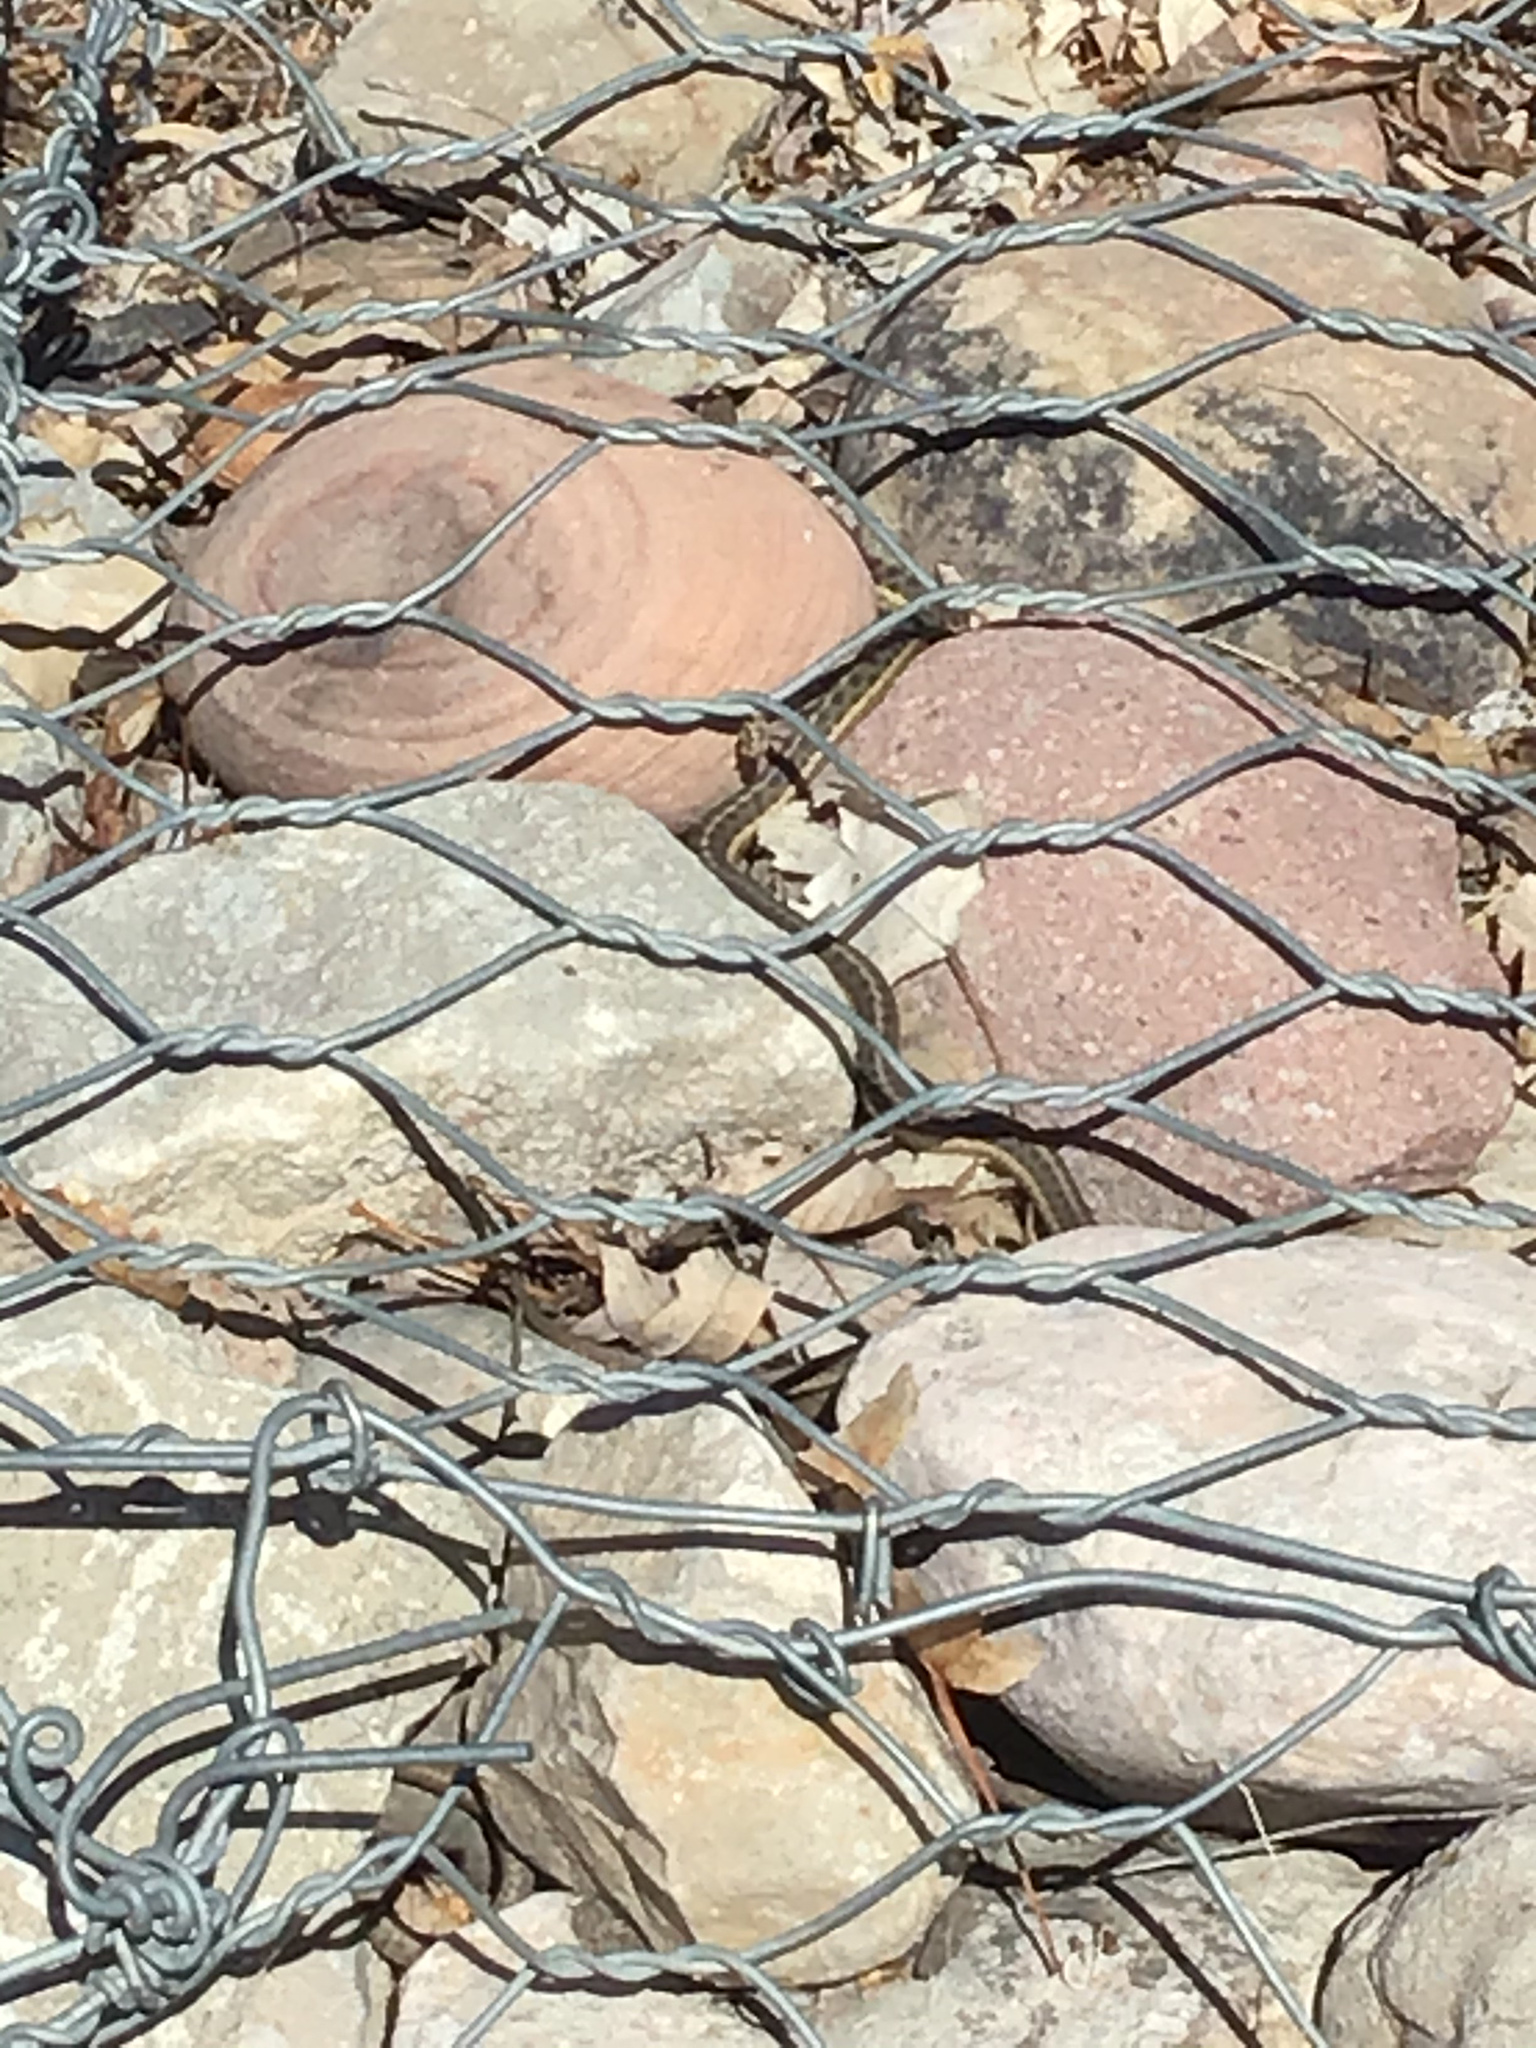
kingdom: Animalia
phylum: Chordata
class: Squamata
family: Colubridae
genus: Thamnophis
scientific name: Thamnophis elegans
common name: Western terrestrial garter snake
